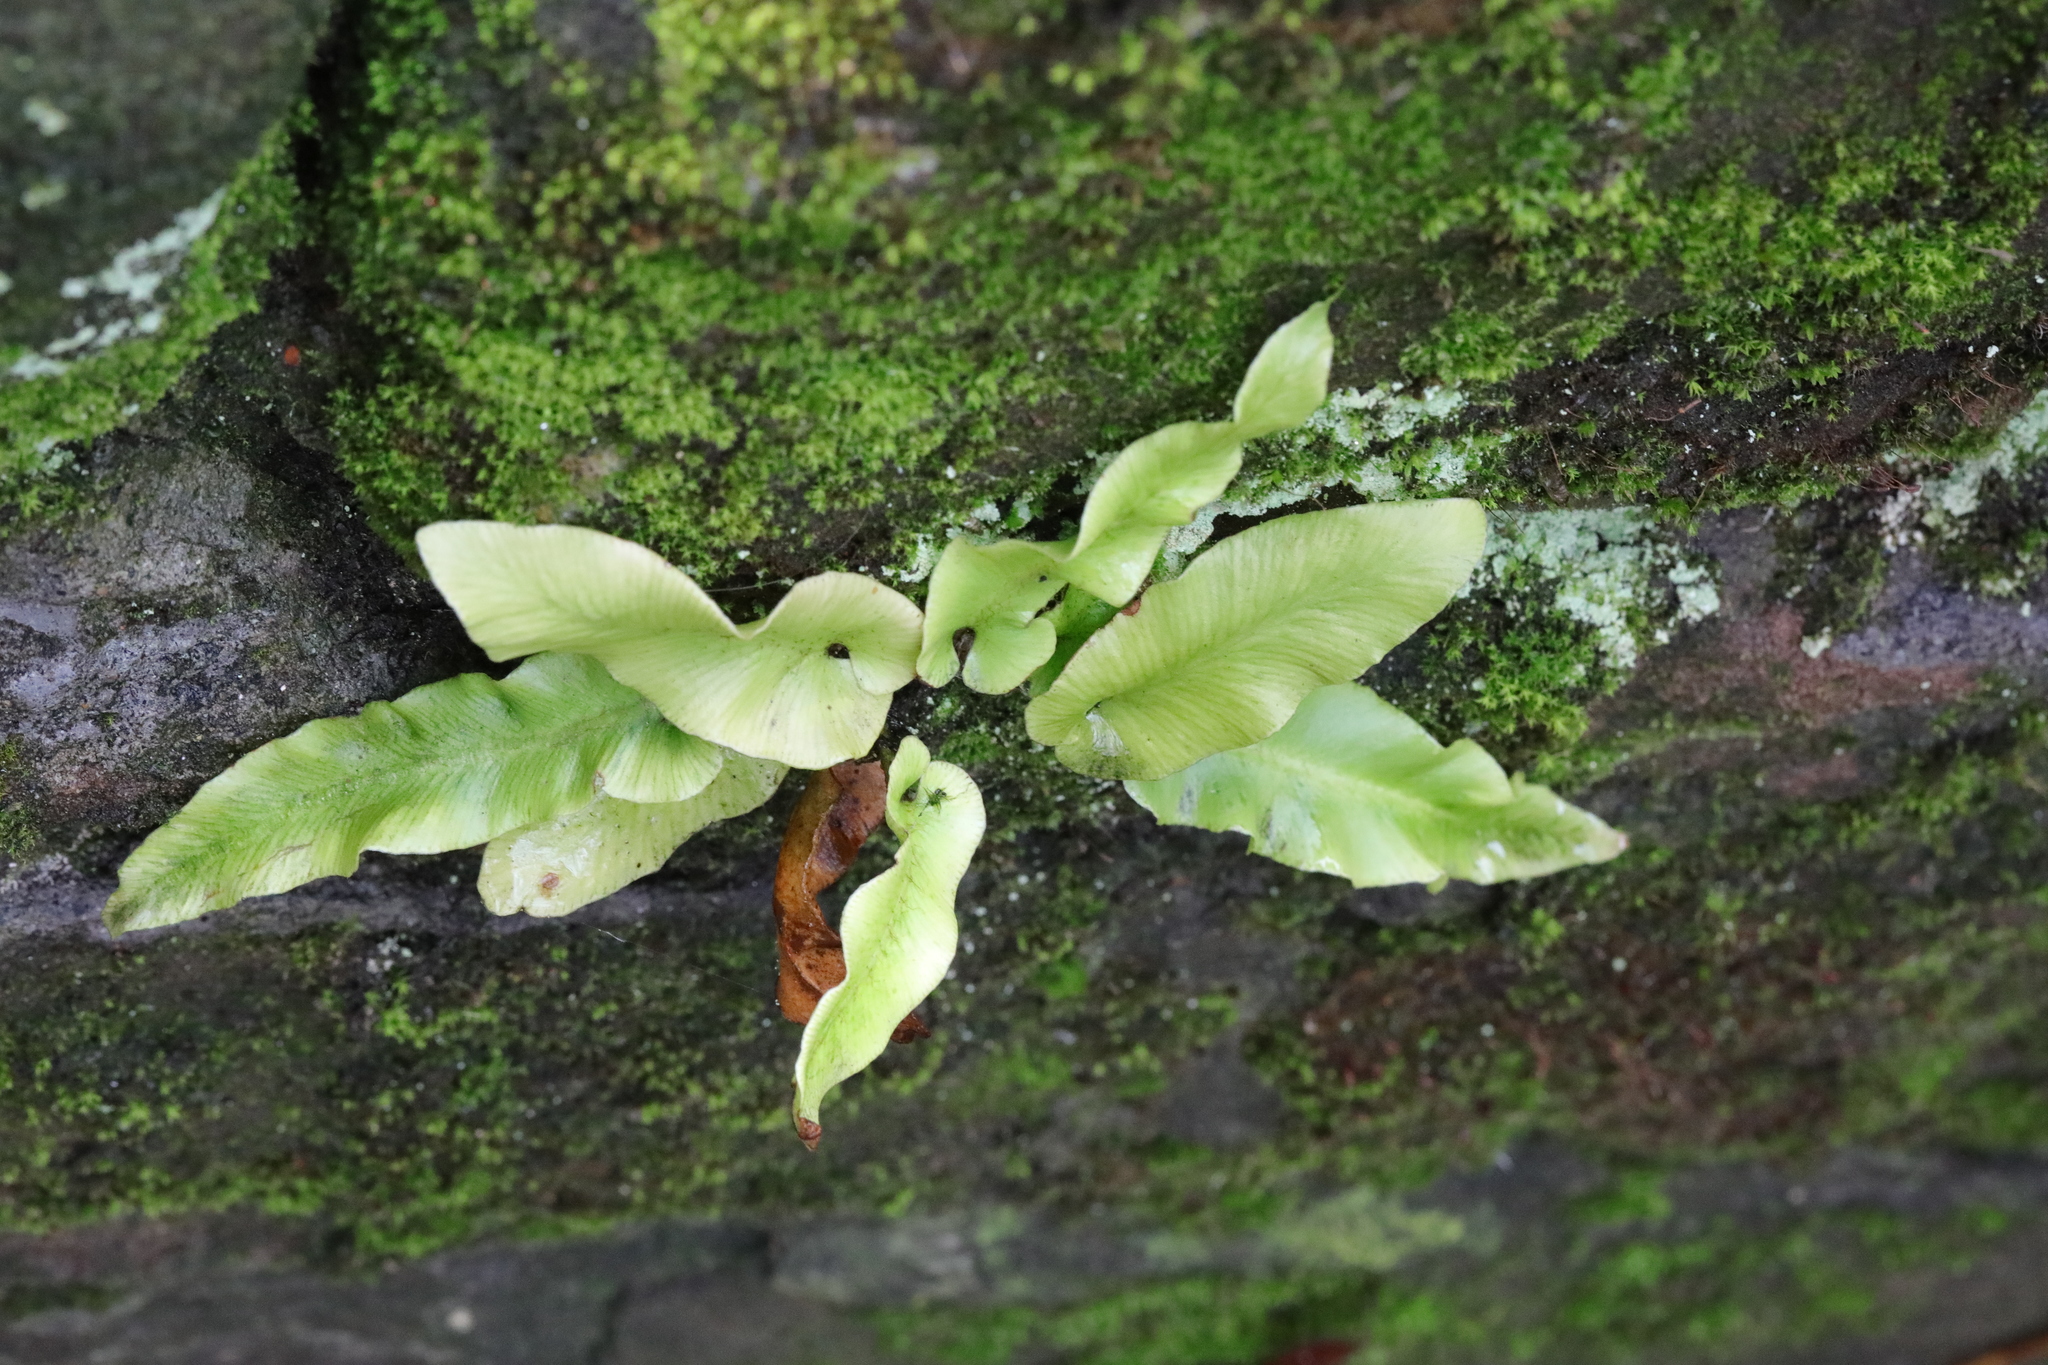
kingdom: Plantae
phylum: Tracheophyta
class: Polypodiopsida
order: Polypodiales
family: Aspleniaceae
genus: Asplenium
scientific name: Asplenium scolopendrium
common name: Hart's-tongue fern
